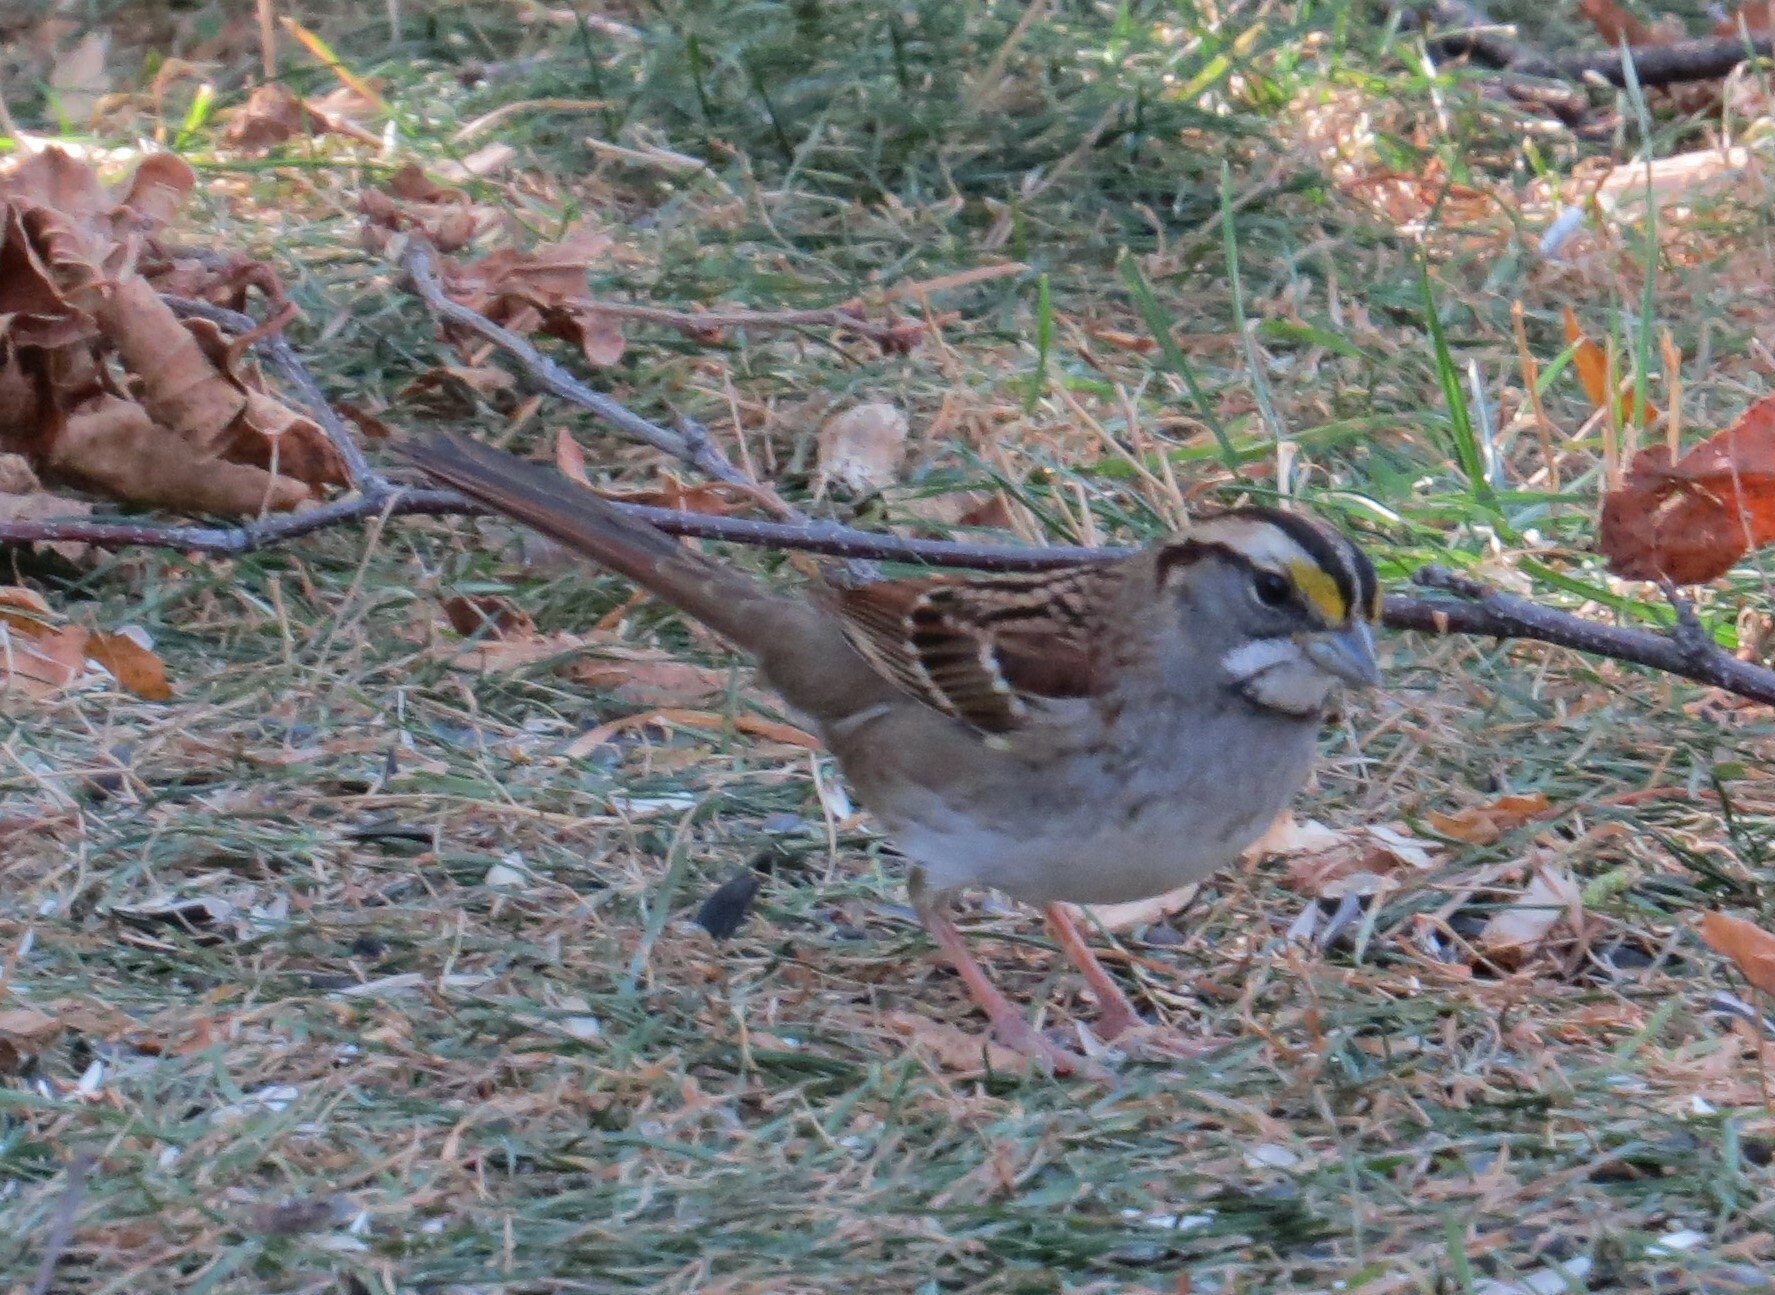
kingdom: Animalia
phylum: Chordata
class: Aves
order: Passeriformes
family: Passerellidae
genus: Zonotrichia
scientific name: Zonotrichia albicollis
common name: White-throated sparrow
